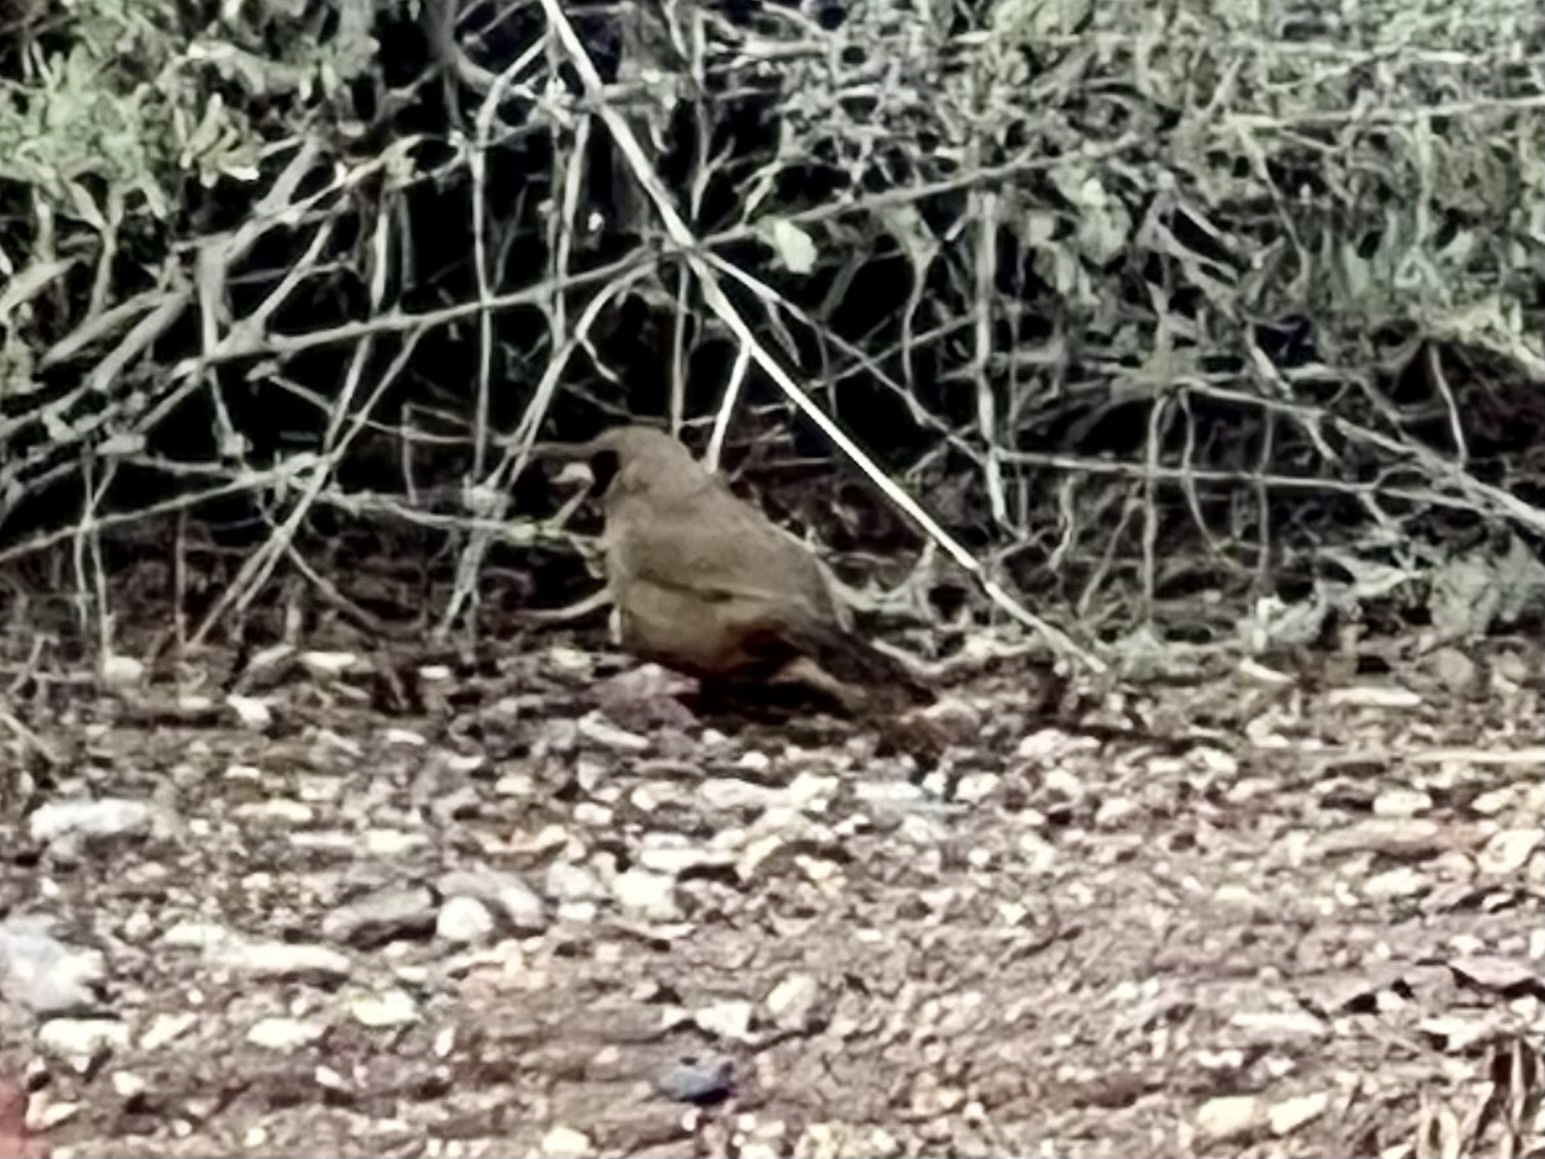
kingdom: Animalia
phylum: Chordata
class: Aves
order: Passeriformes
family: Passerellidae
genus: Melozone
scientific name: Melozone aberti
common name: Abert's towhee
